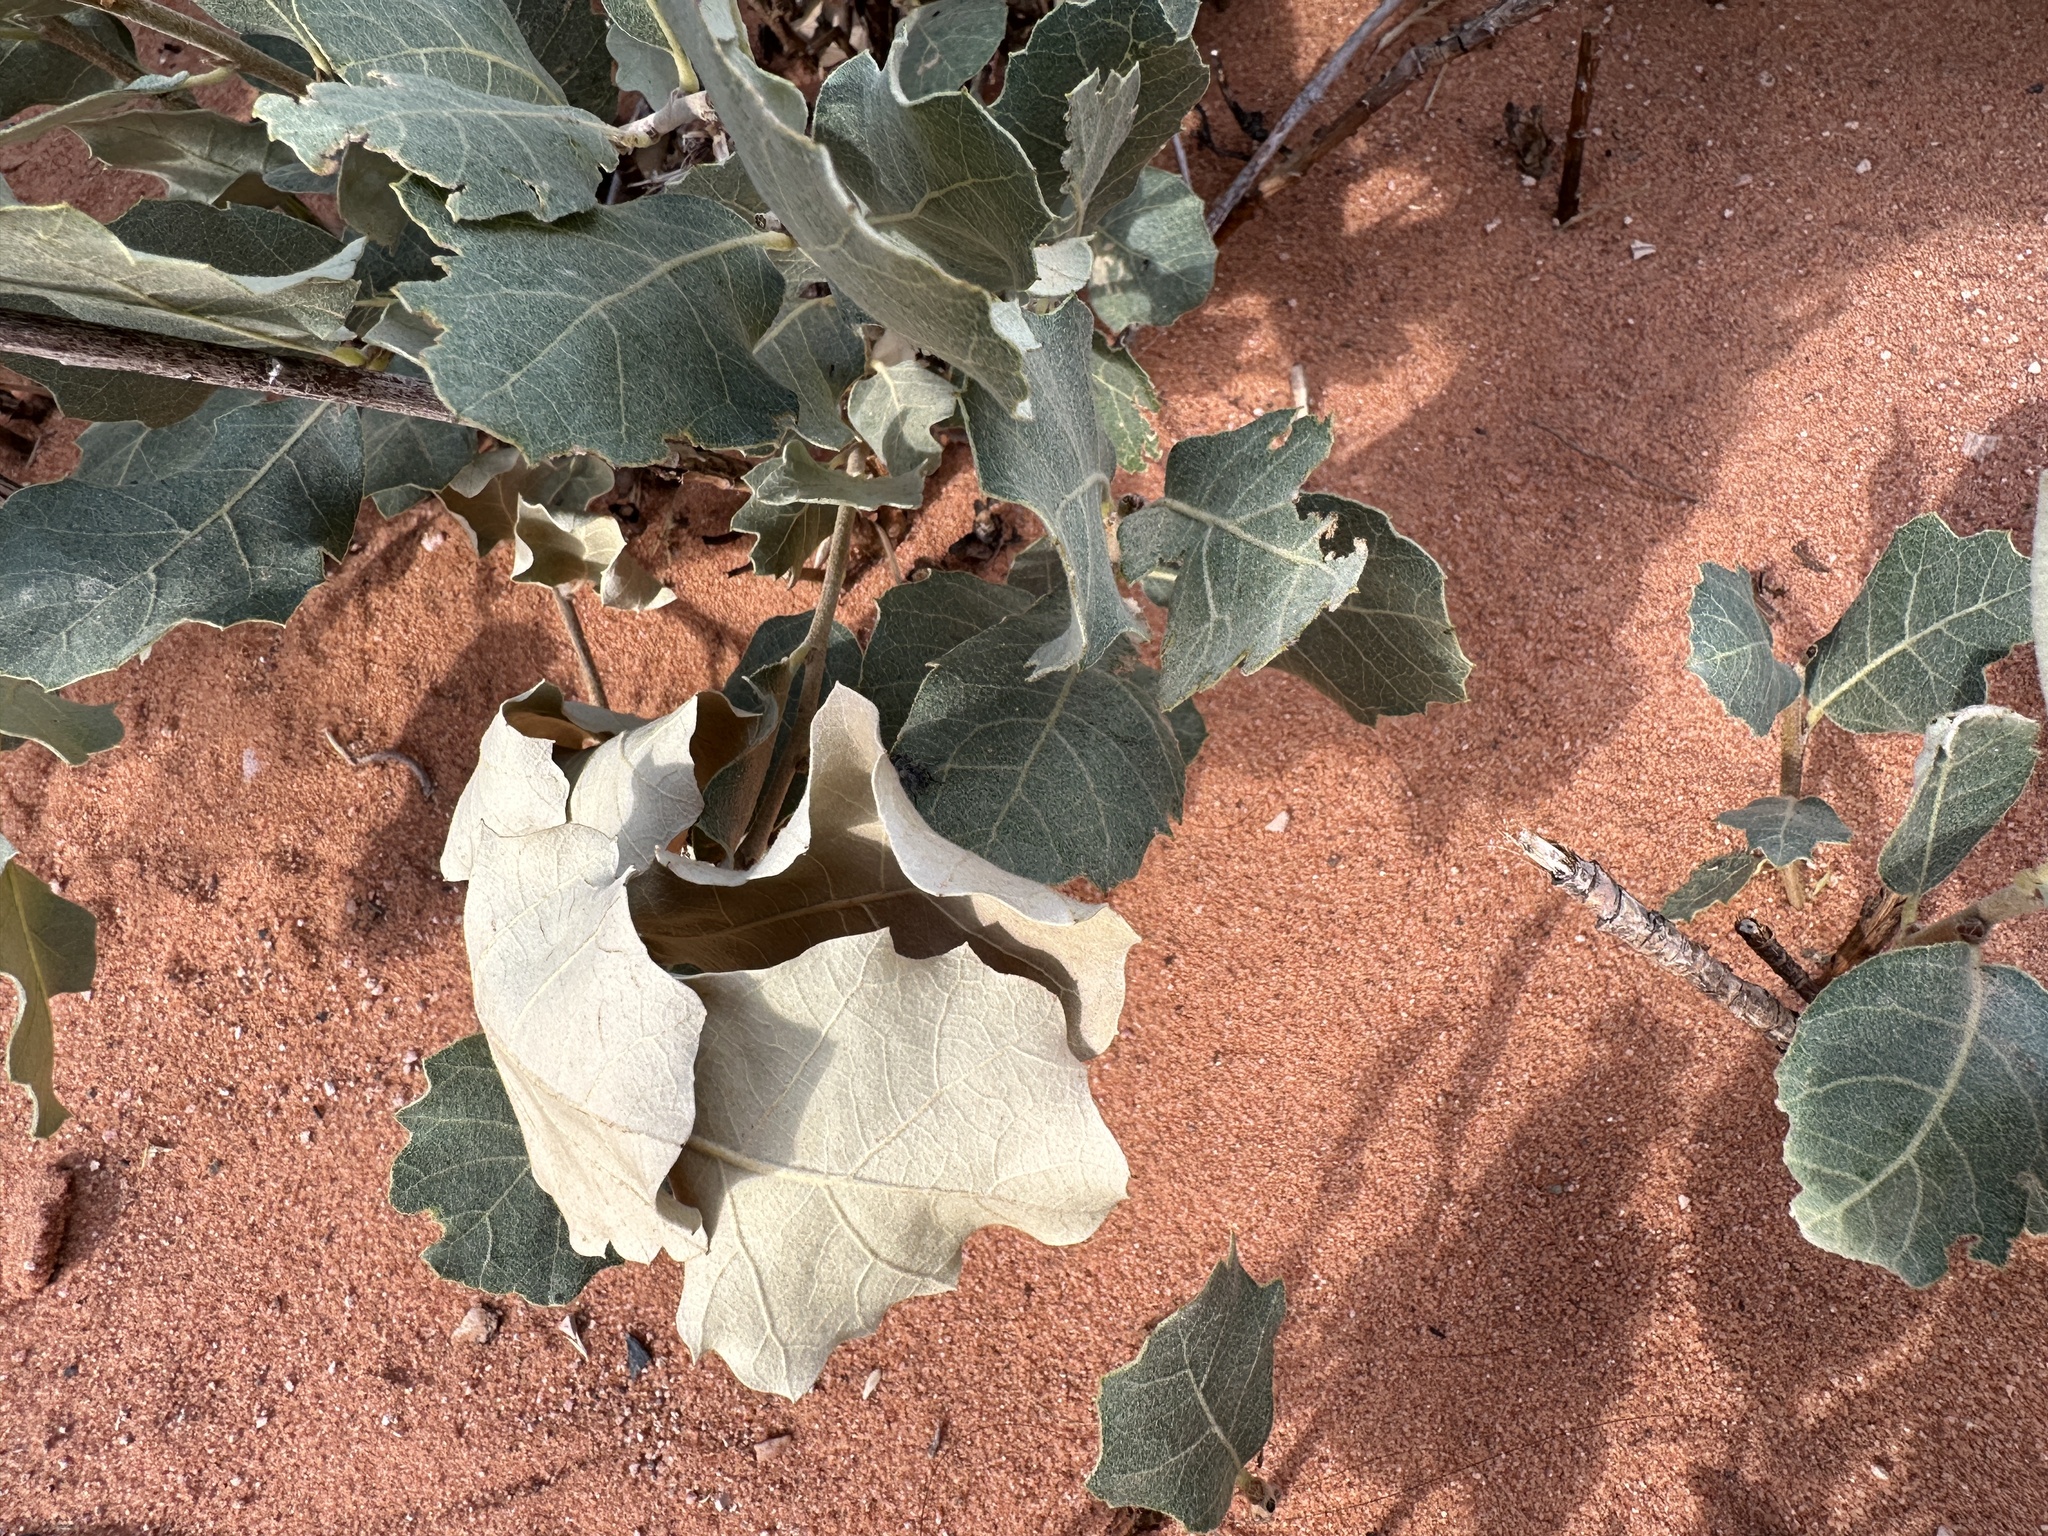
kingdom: Plantae
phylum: Tracheophyta
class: Magnoliopsida
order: Fagales
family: Fagaceae
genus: Quercus
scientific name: Quercus welshii
